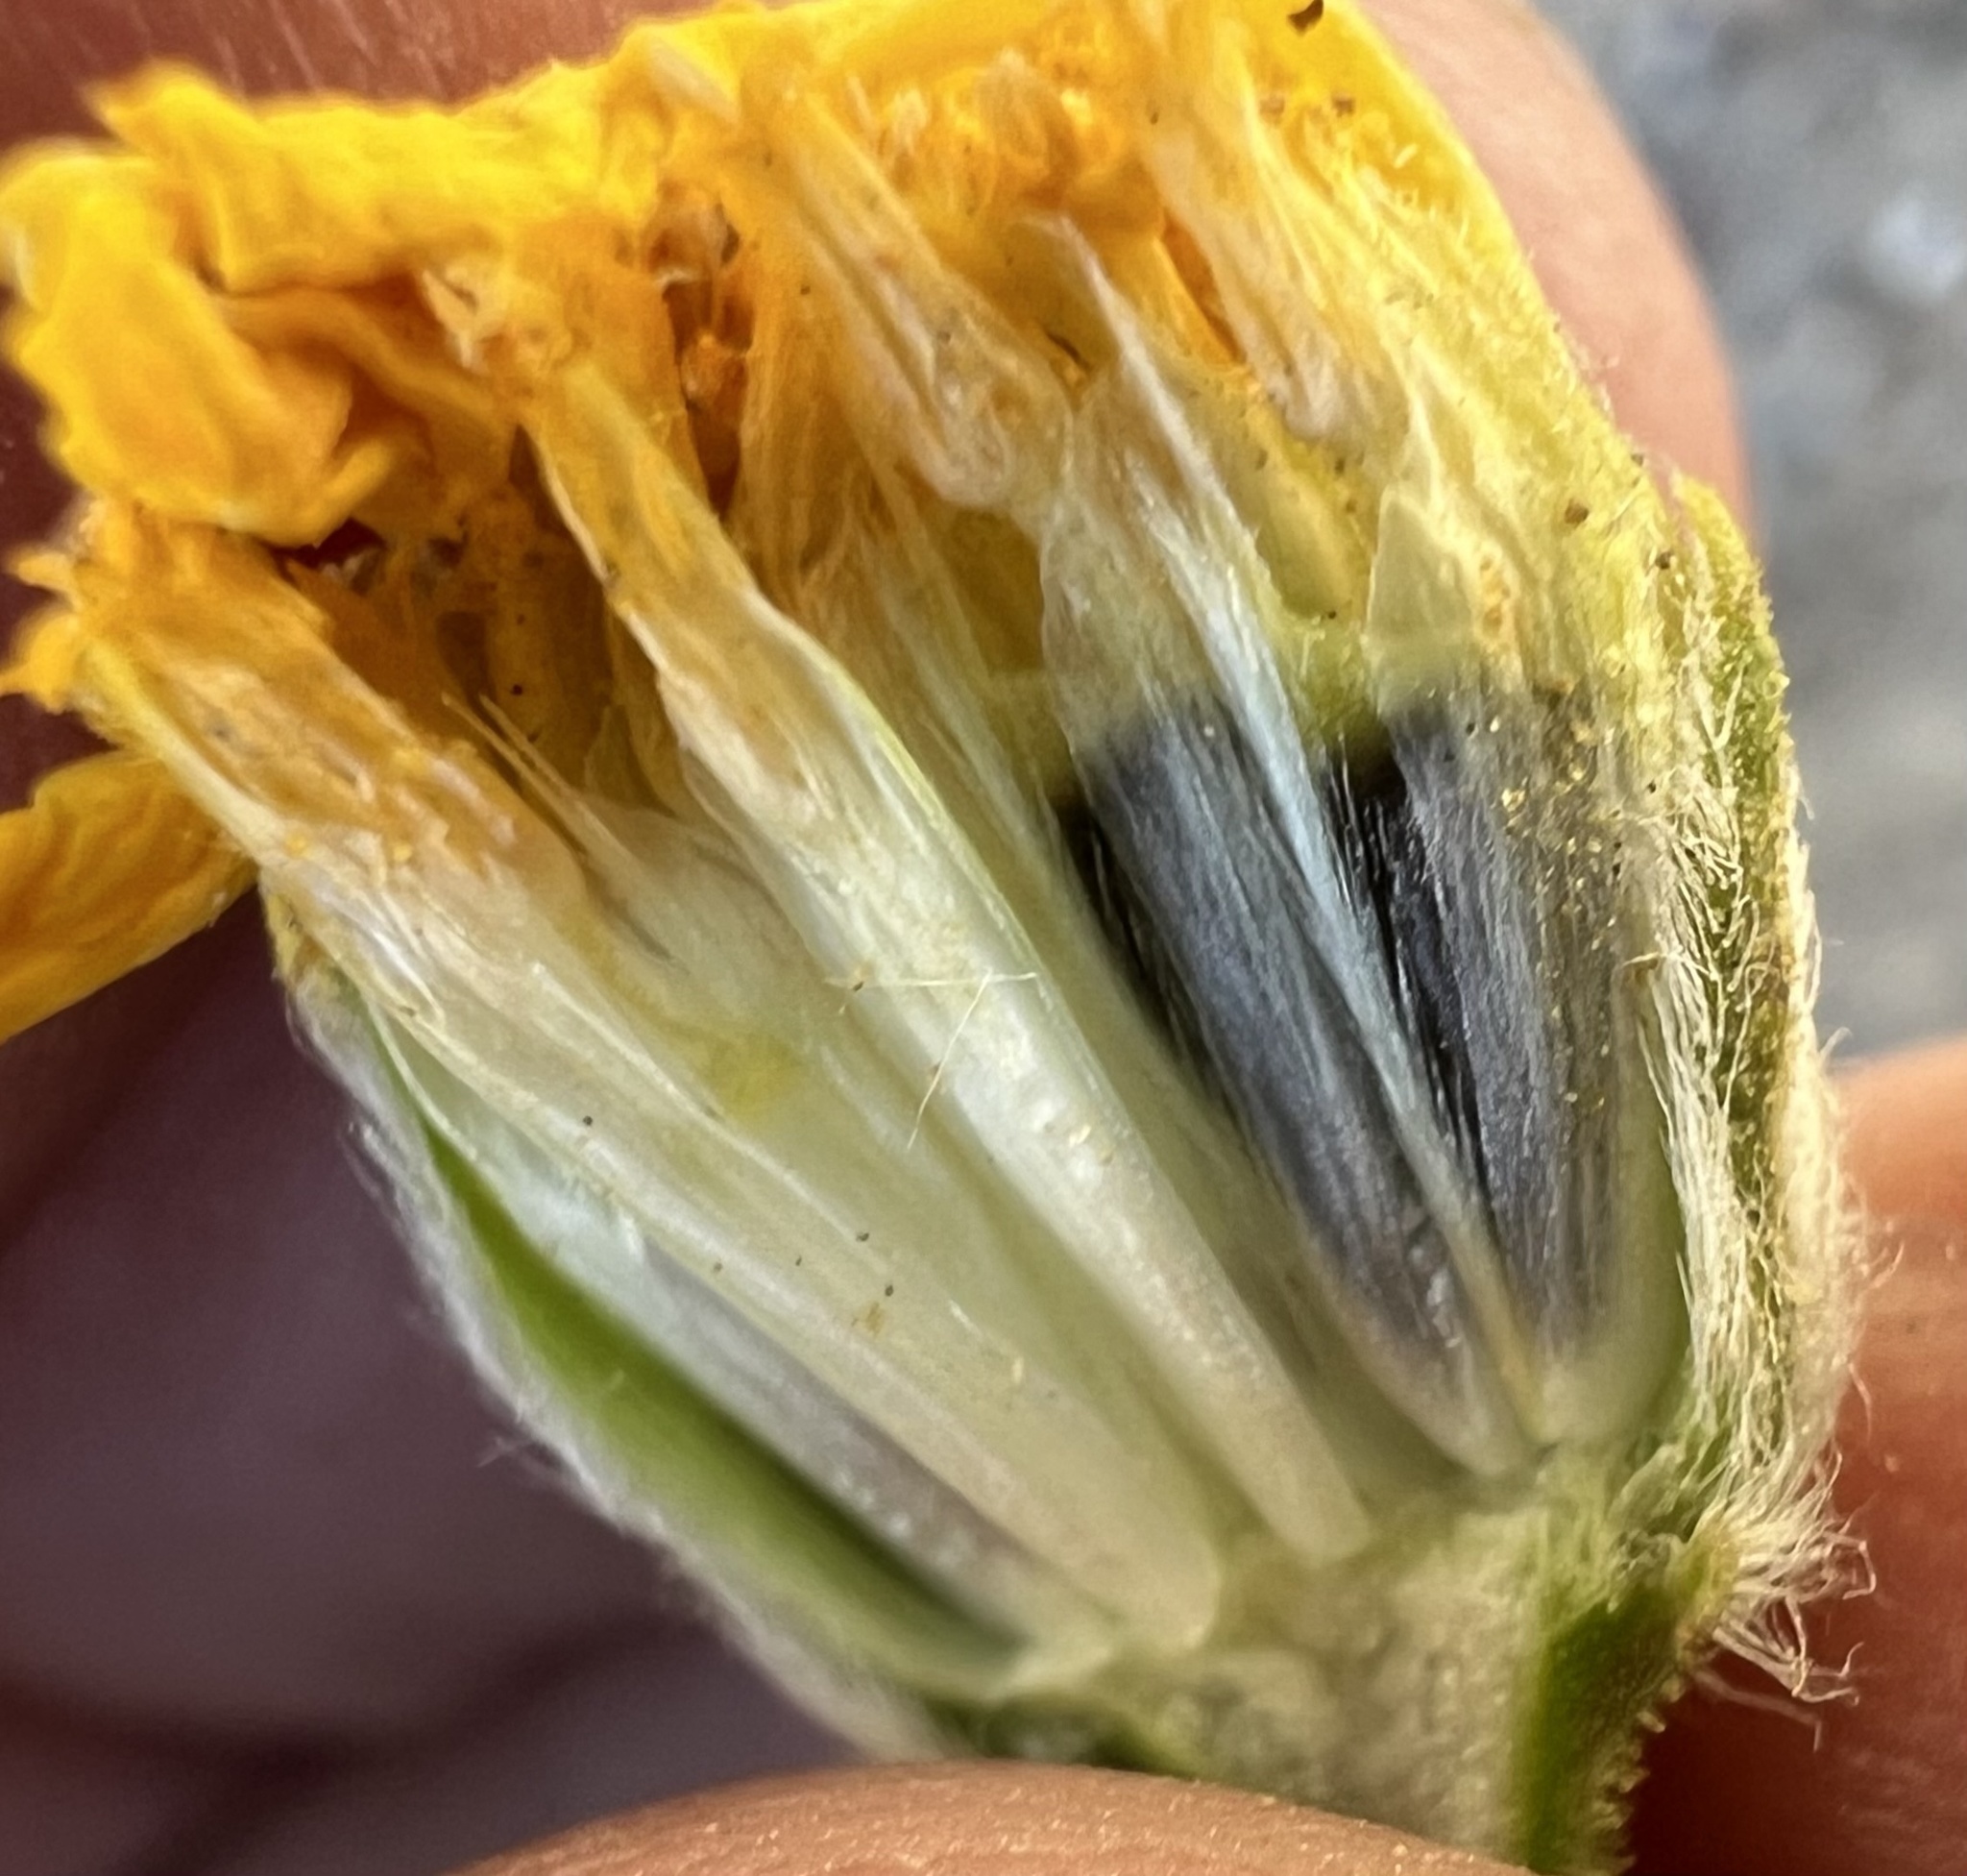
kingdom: Plantae
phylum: Tracheophyta
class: Magnoliopsida
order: Asterales
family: Asteraceae
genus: Geraea
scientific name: Geraea canescens
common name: Desert-gold
